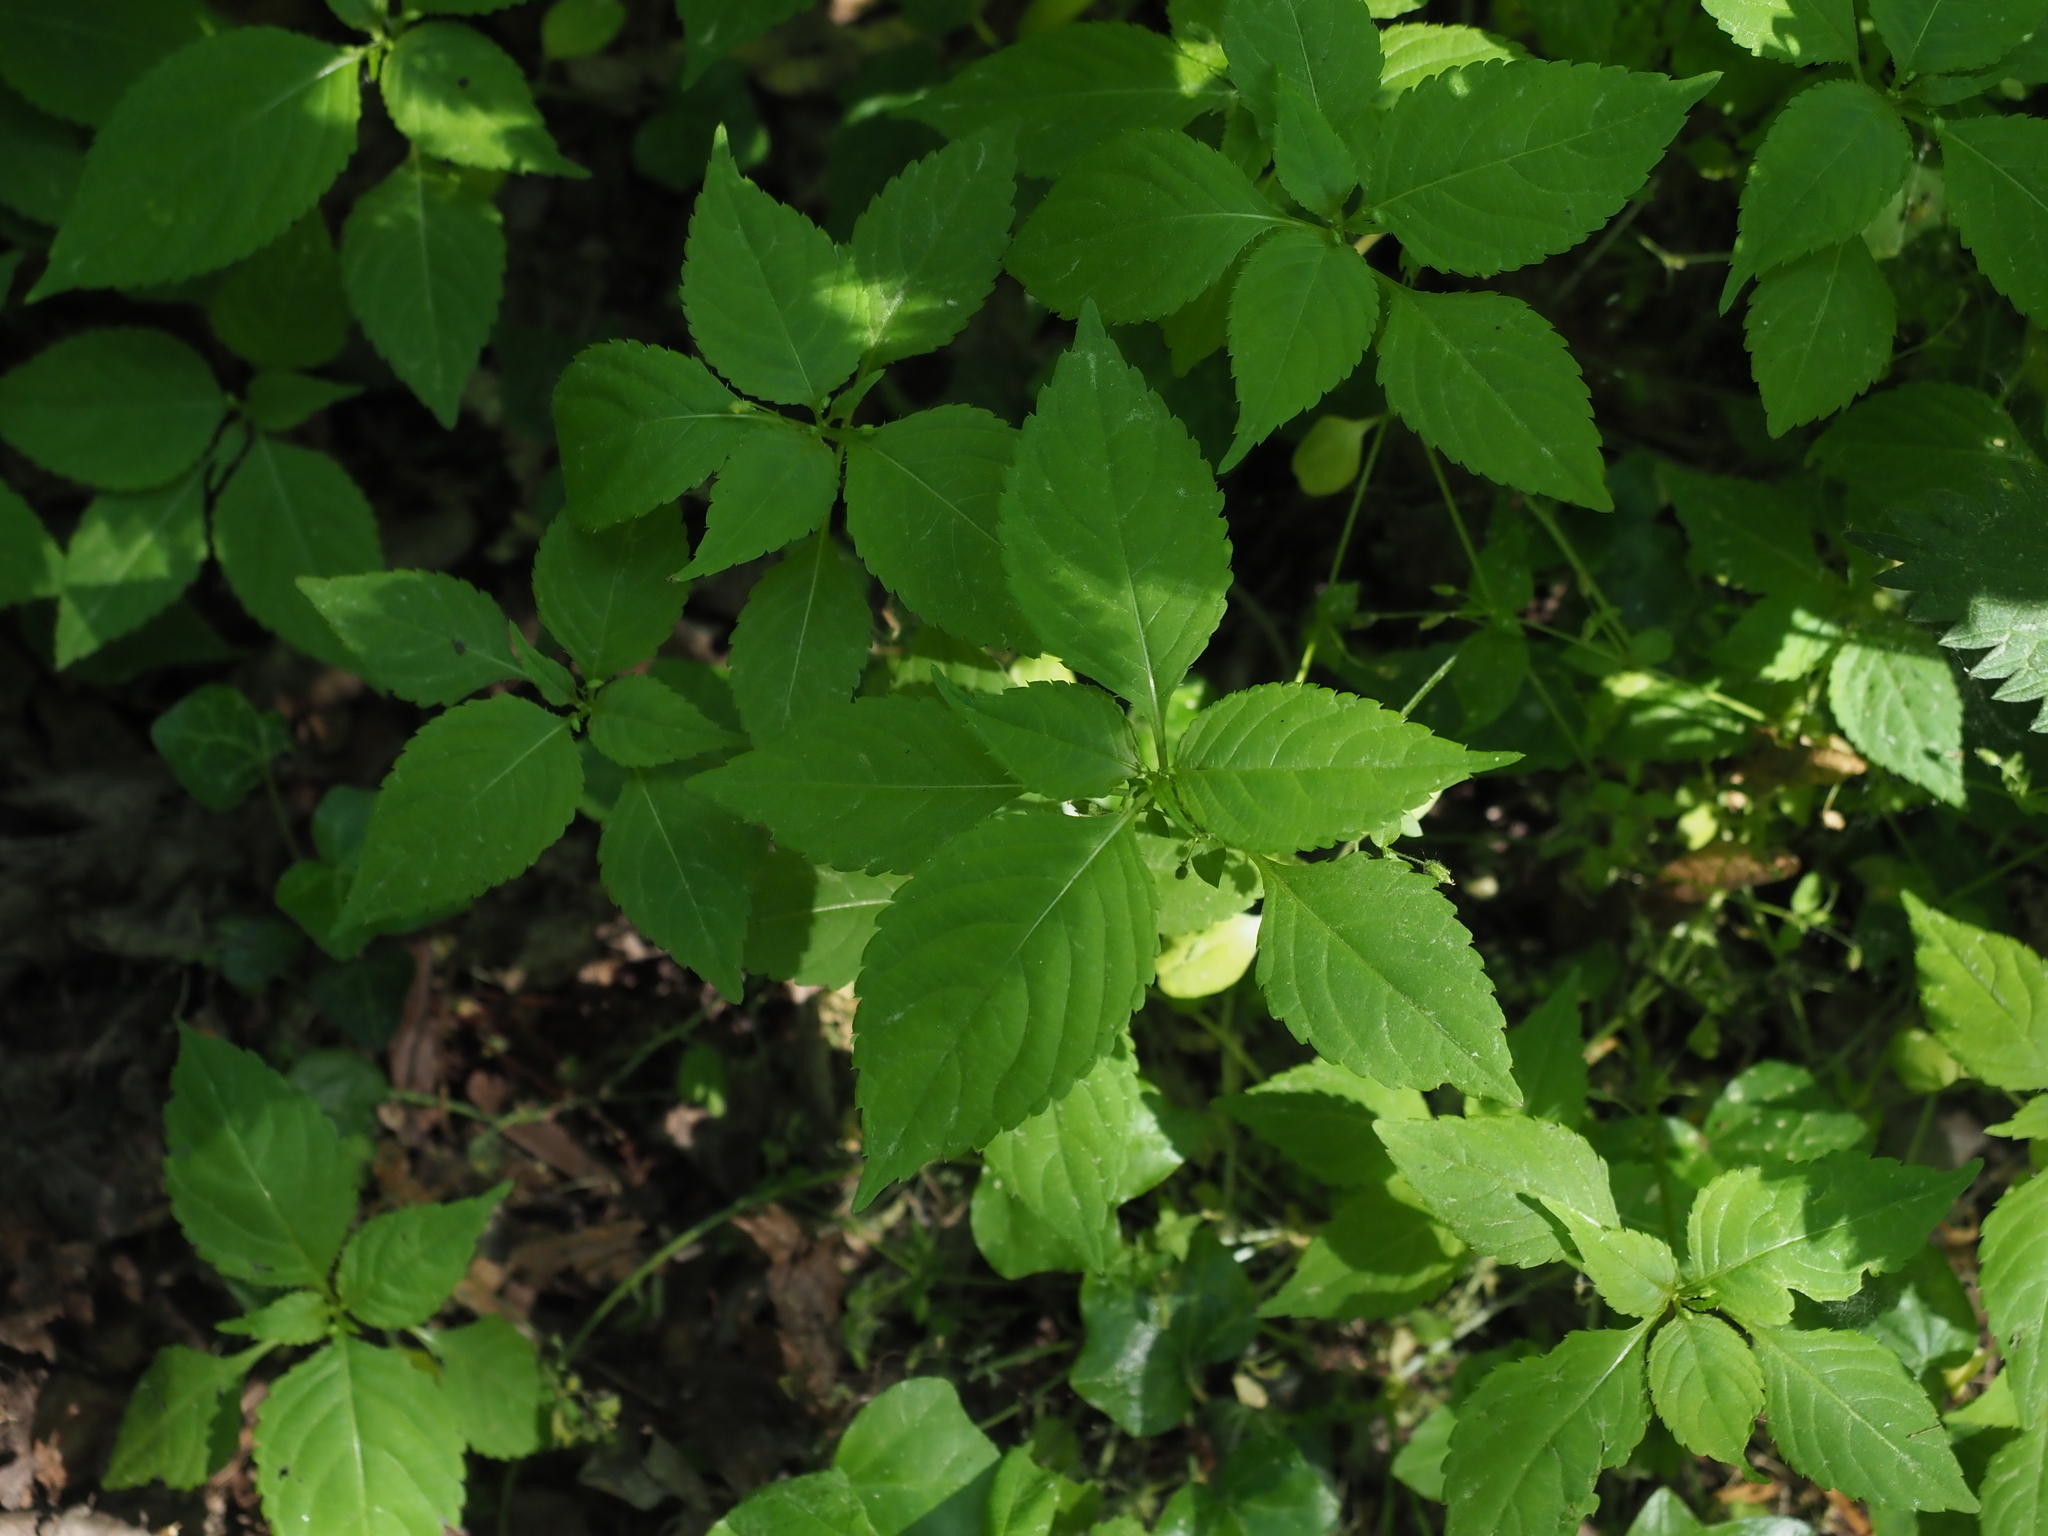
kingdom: Plantae
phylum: Tracheophyta
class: Magnoliopsida
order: Ericales
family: Balsaminaceae
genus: Impatiens
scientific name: Impatiens parviflora
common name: Small balsam
